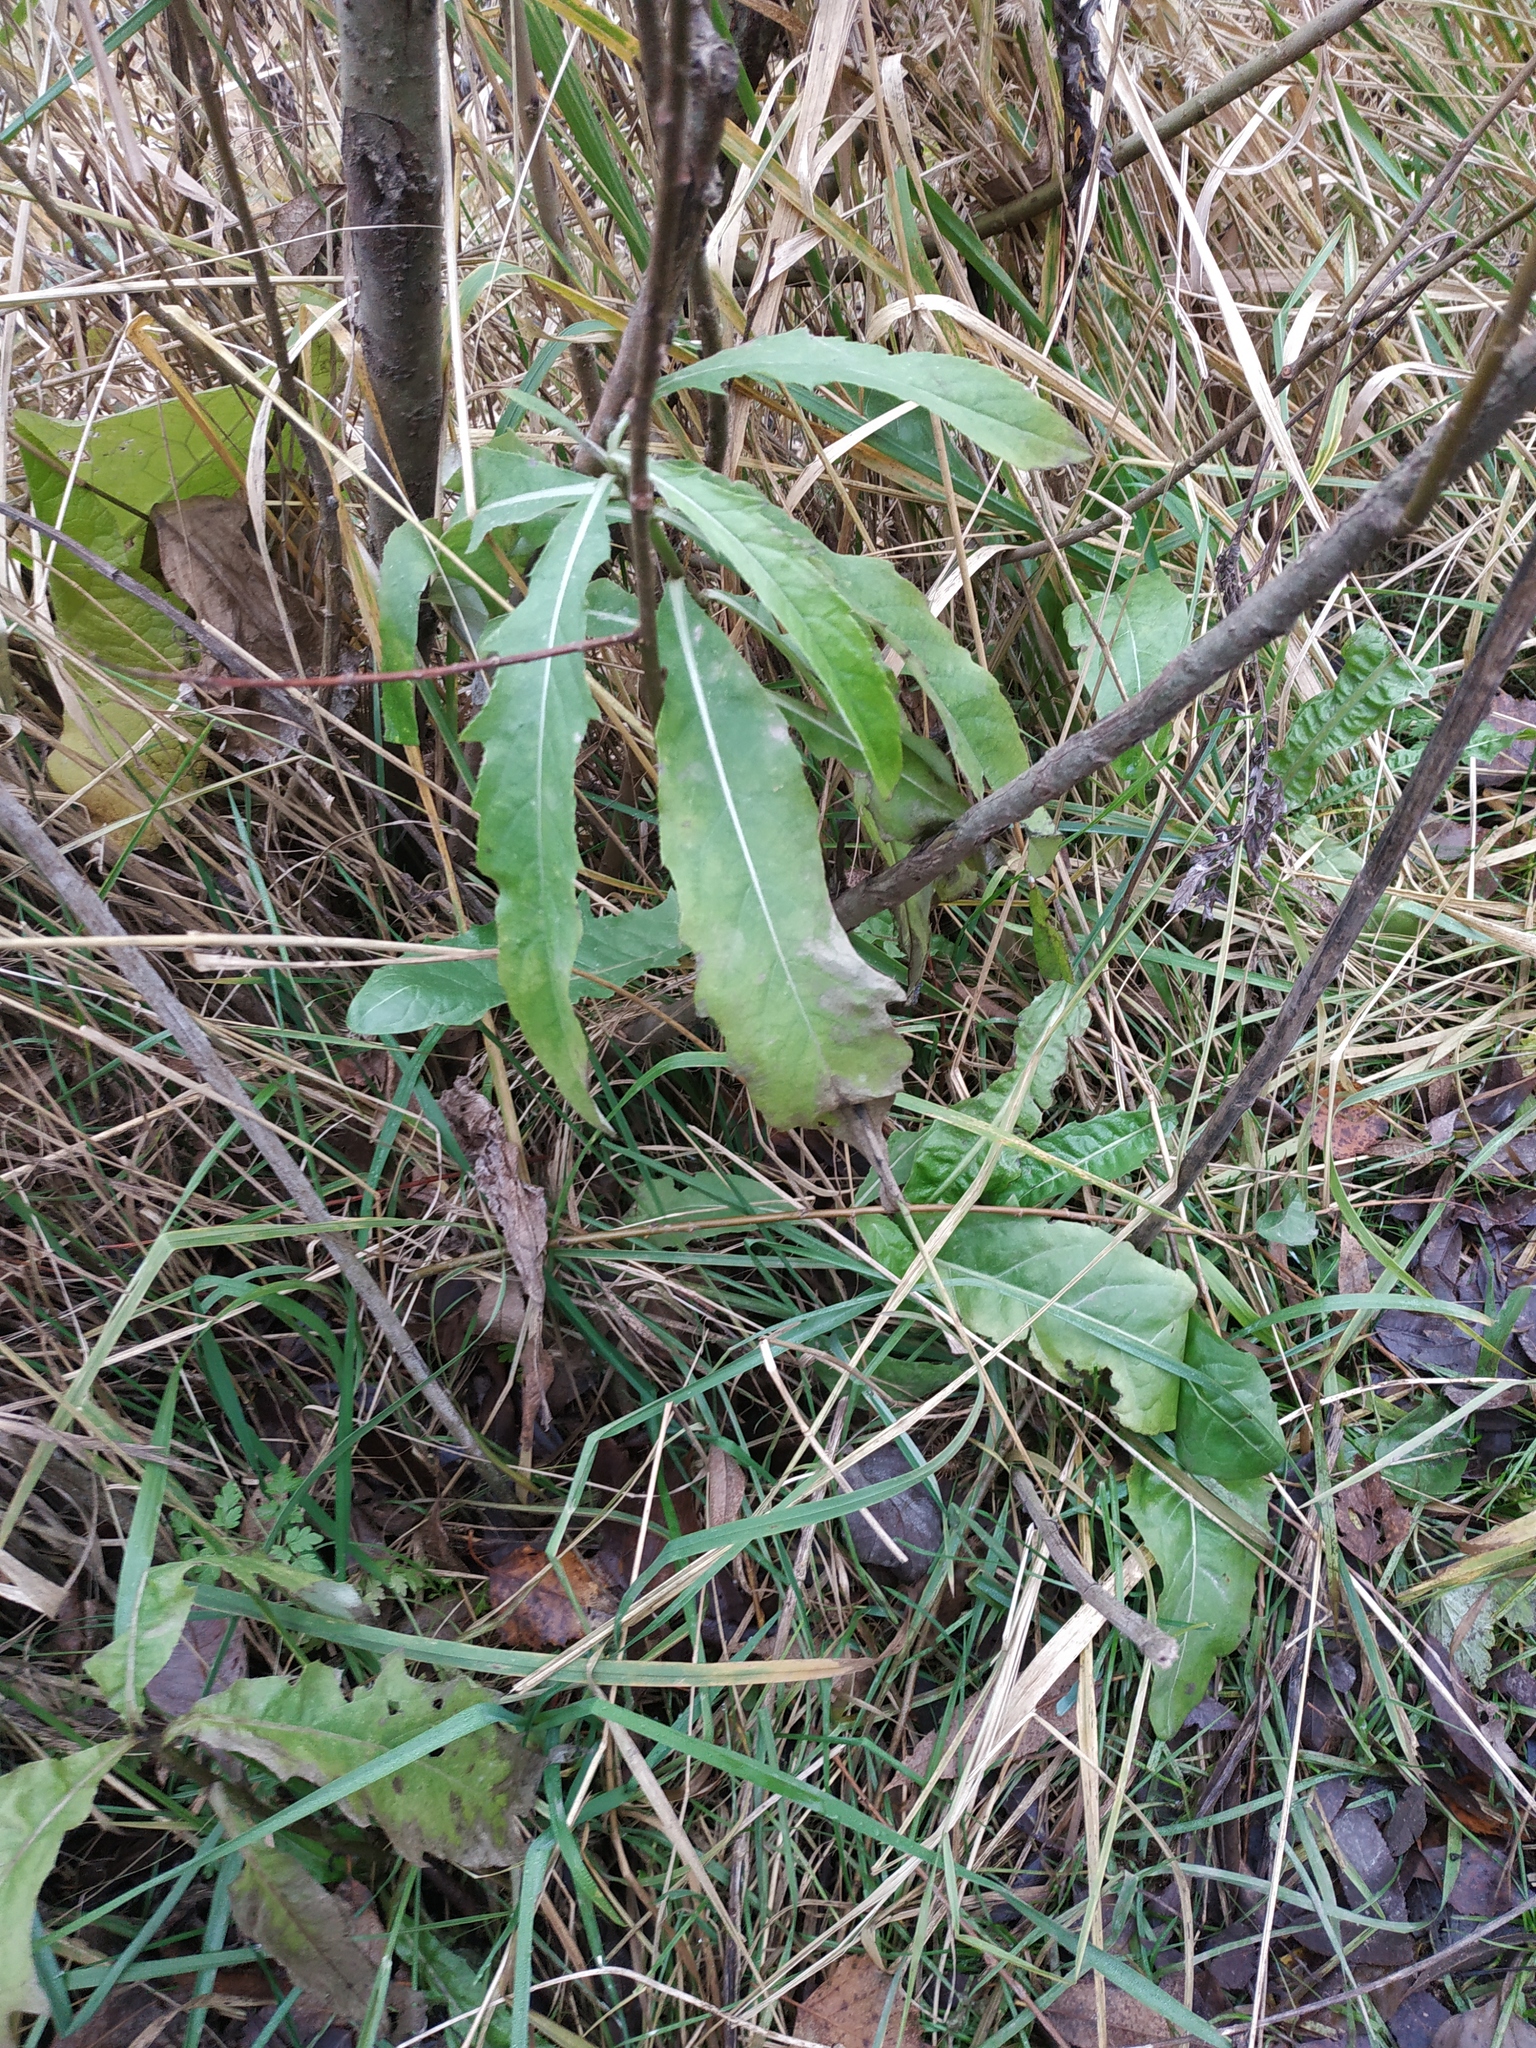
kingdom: Plantae
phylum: Tracheophyta
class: Magnoliopsida
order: Asterales
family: Asteraceae
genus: Cirsium
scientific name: Cirsium arvense
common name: Creeping thistle
